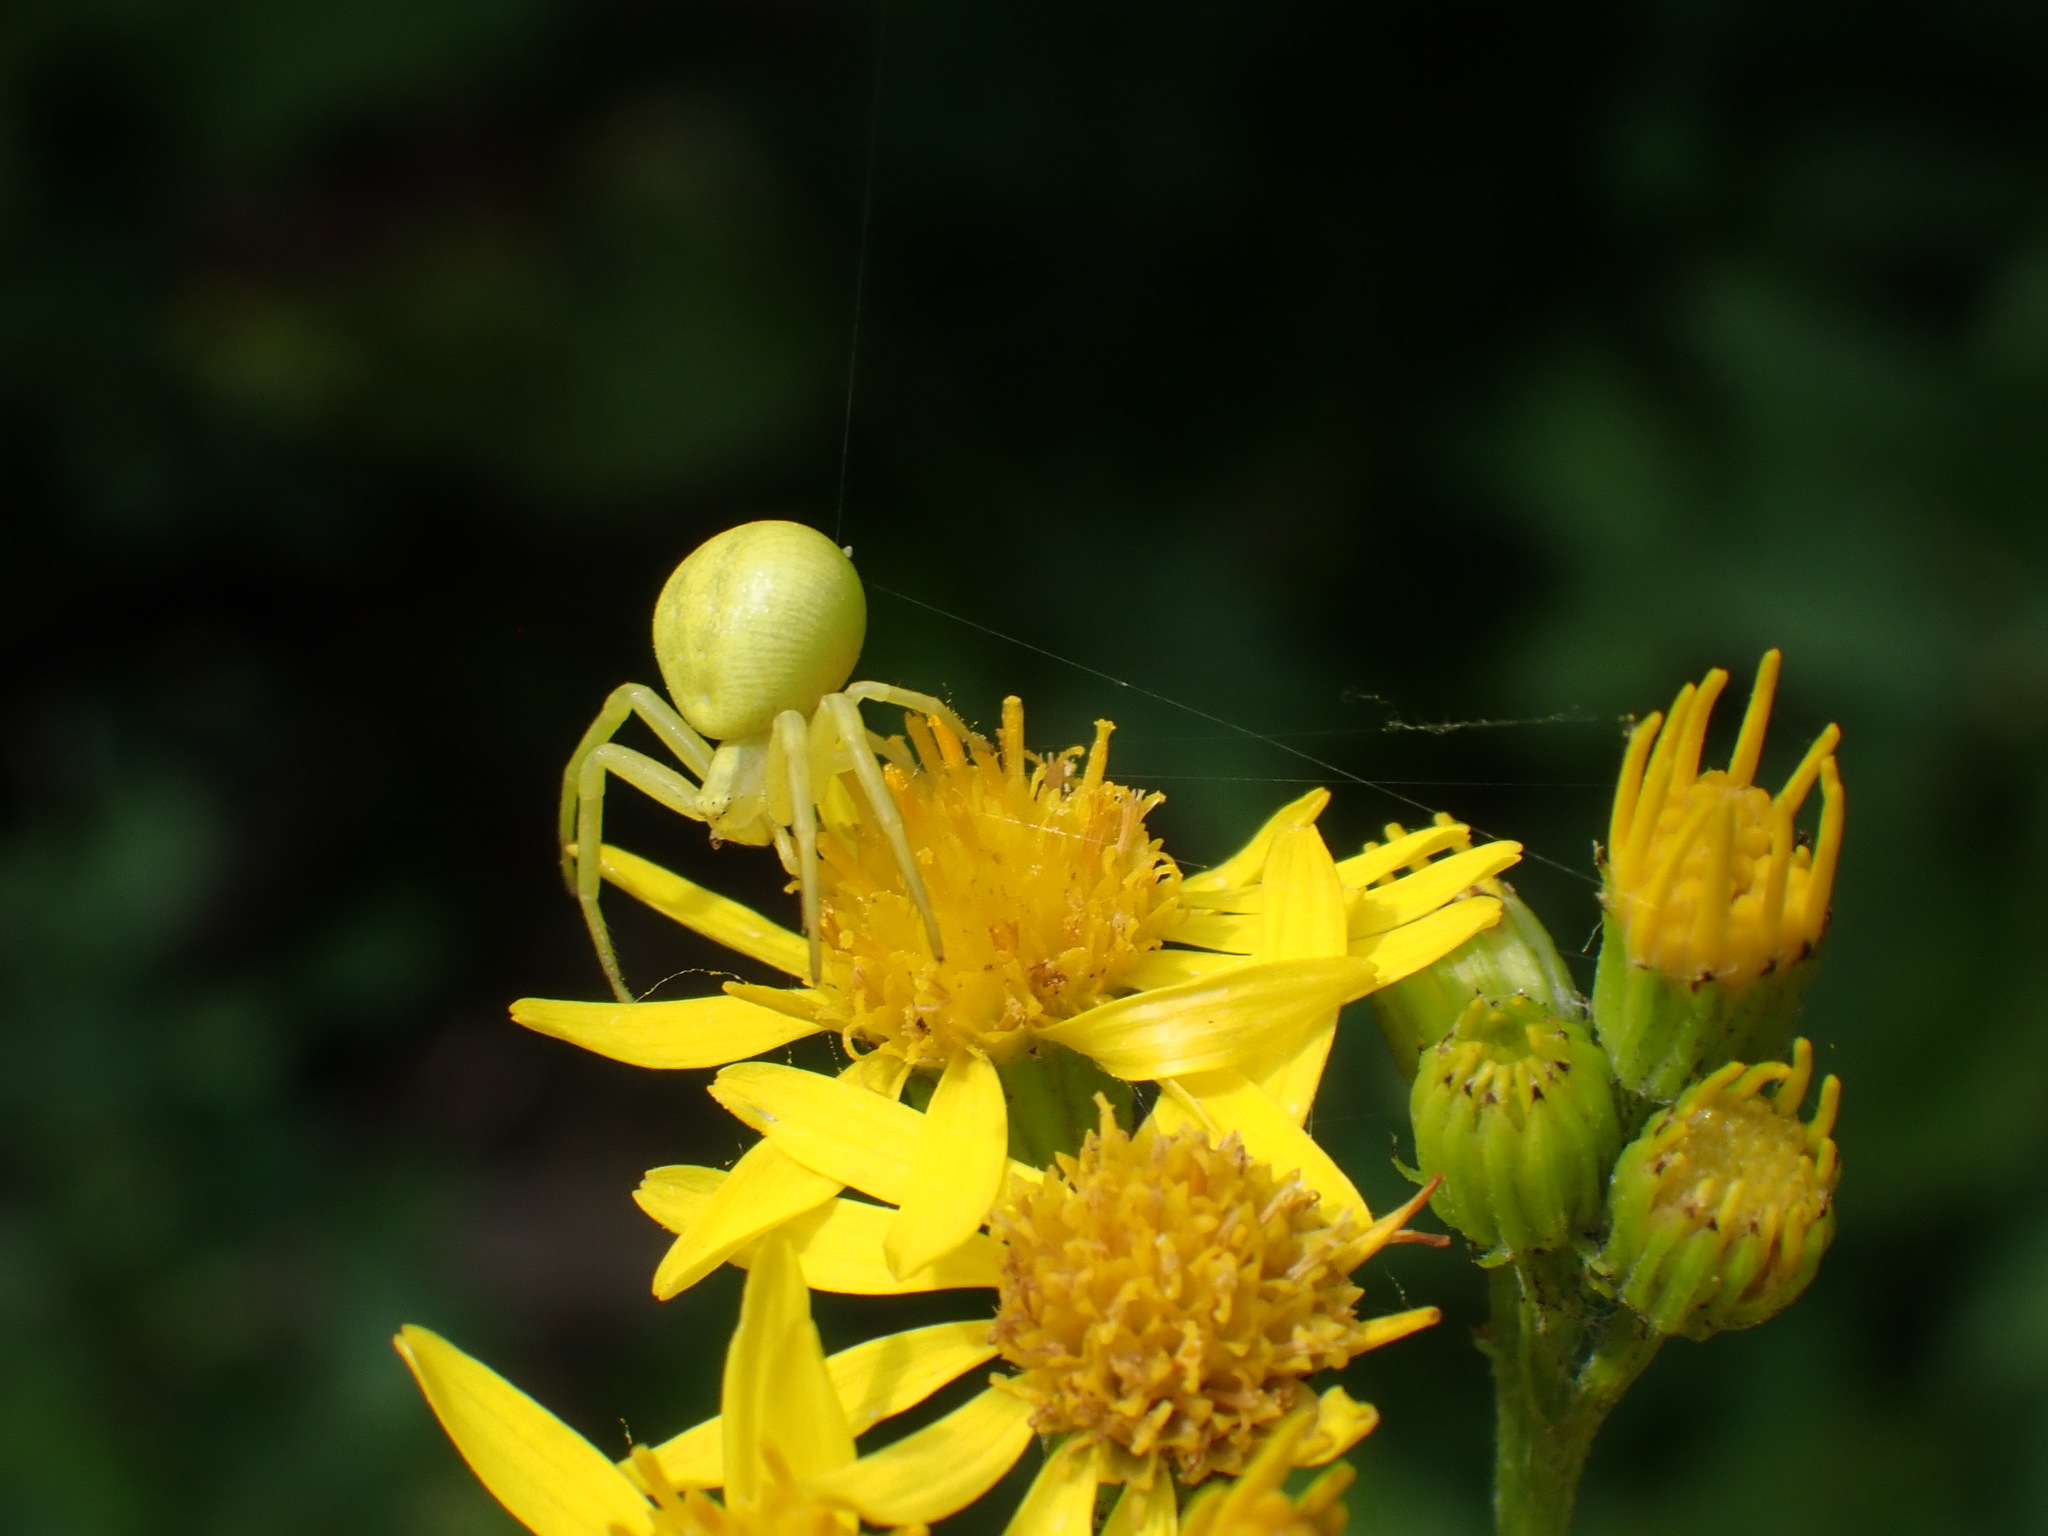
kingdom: Animalia
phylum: Arthropoda
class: Arachnida
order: Araneae
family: Thomisidae
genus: Misumena
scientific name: Misumena vatia
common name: Goldenrod crab spider
